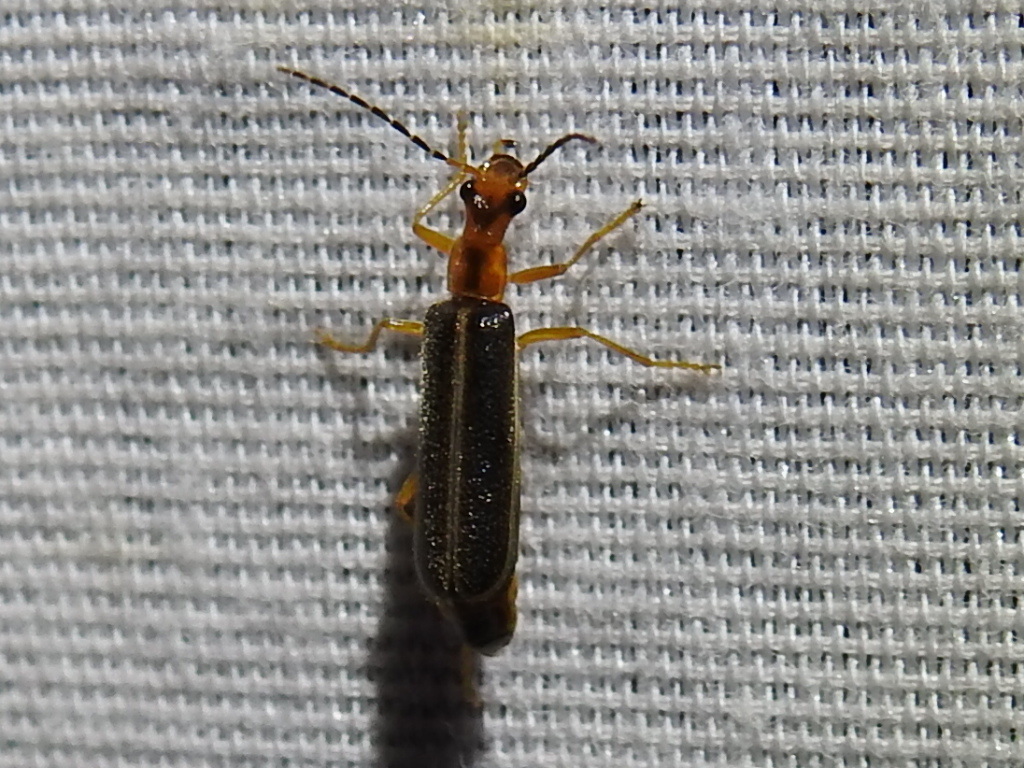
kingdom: Animalia
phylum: Arthropoda
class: Insecta
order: Coleoptera
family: Cantharidae
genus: Podabrus
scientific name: Podabrus dreisbachi
